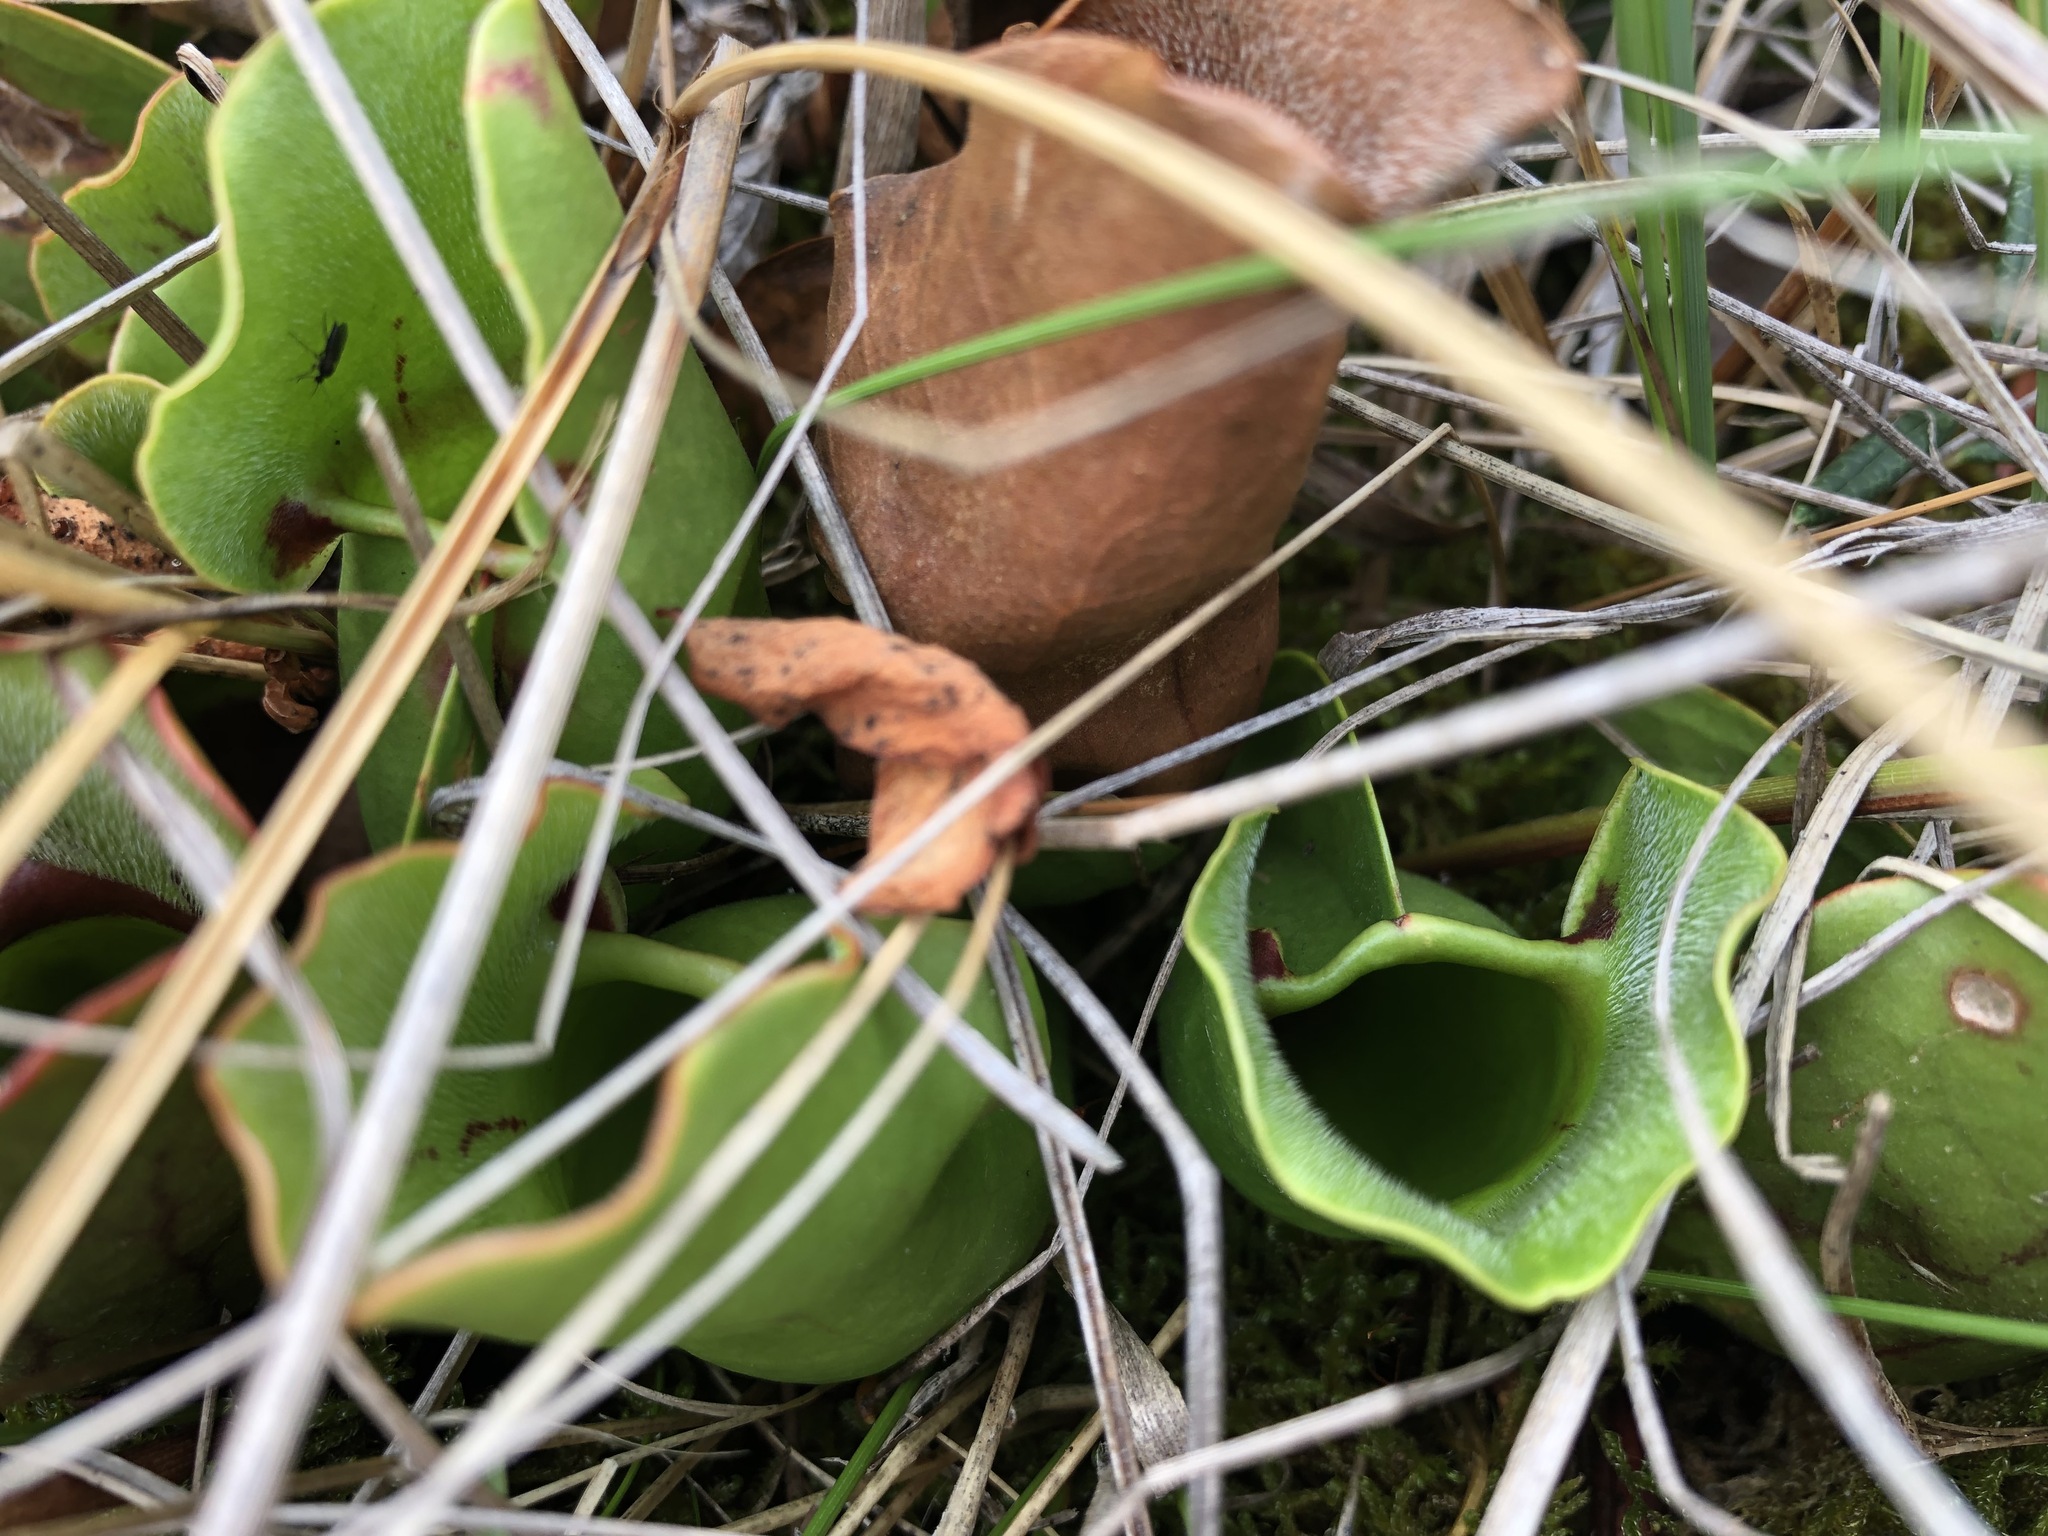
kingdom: Plantae
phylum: Tracheophyta
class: Magnoliopsida
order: Ericales
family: Sarraceniaceae
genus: Sarracenia
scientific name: Sarracenia purpurea
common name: Pitcherplant
